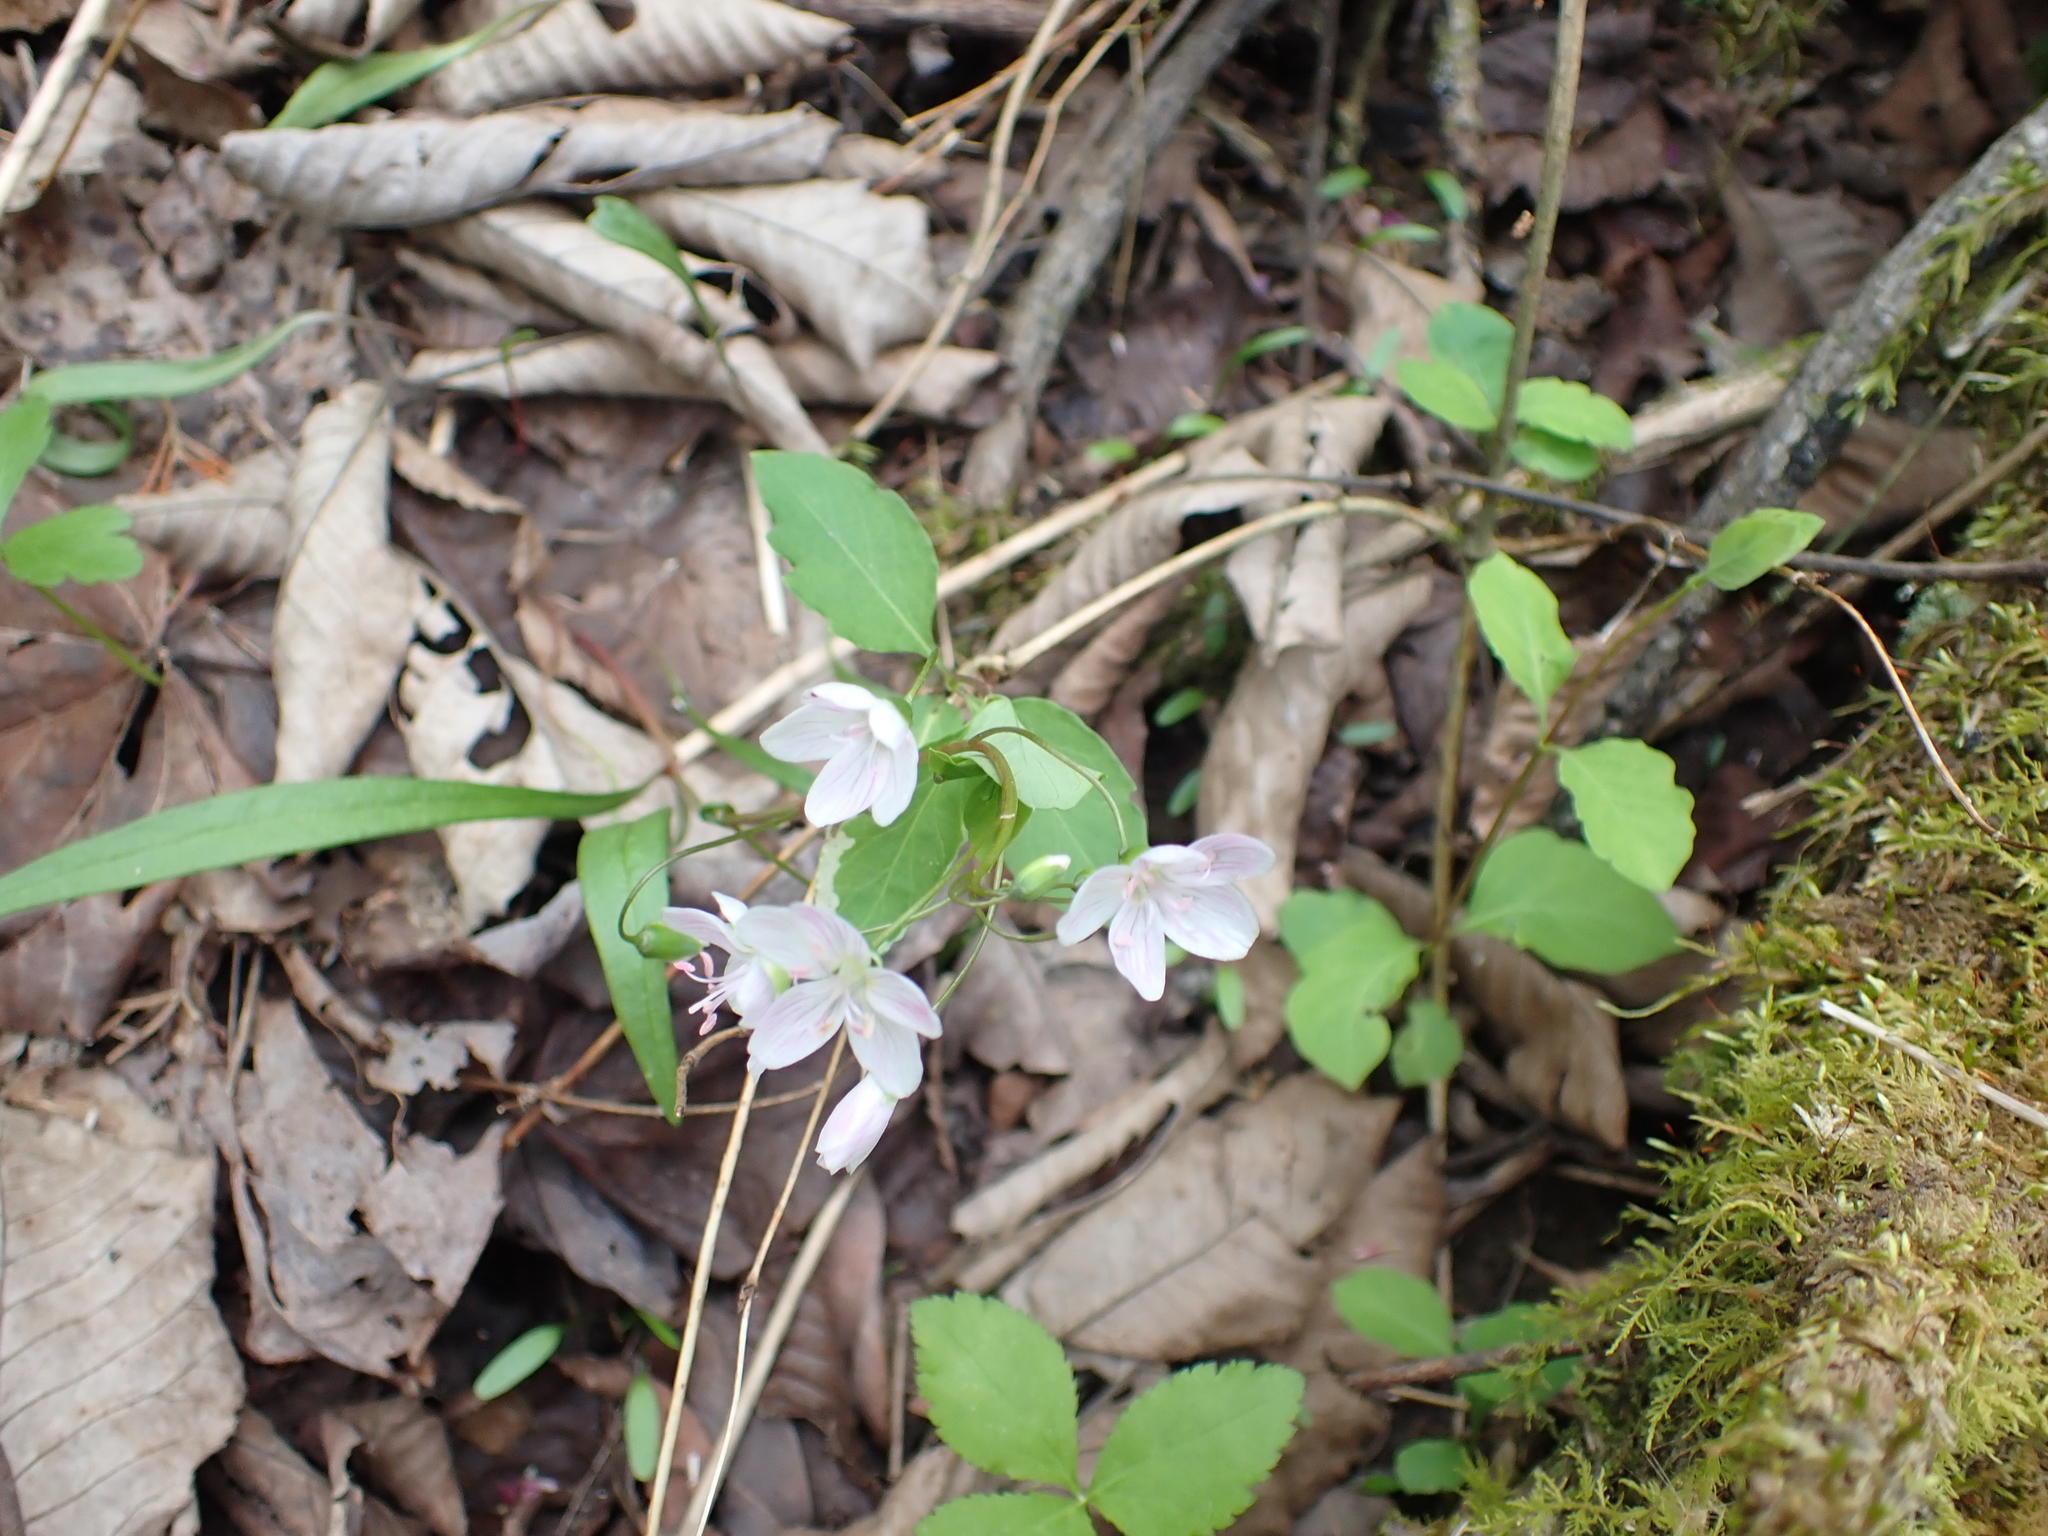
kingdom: Plantae
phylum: Tracheophyta
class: Magnoliopsida
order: Caryophyllales
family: Montiaceae
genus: Claytonia
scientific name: Claytonia virginica
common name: Virginia springbeauty
